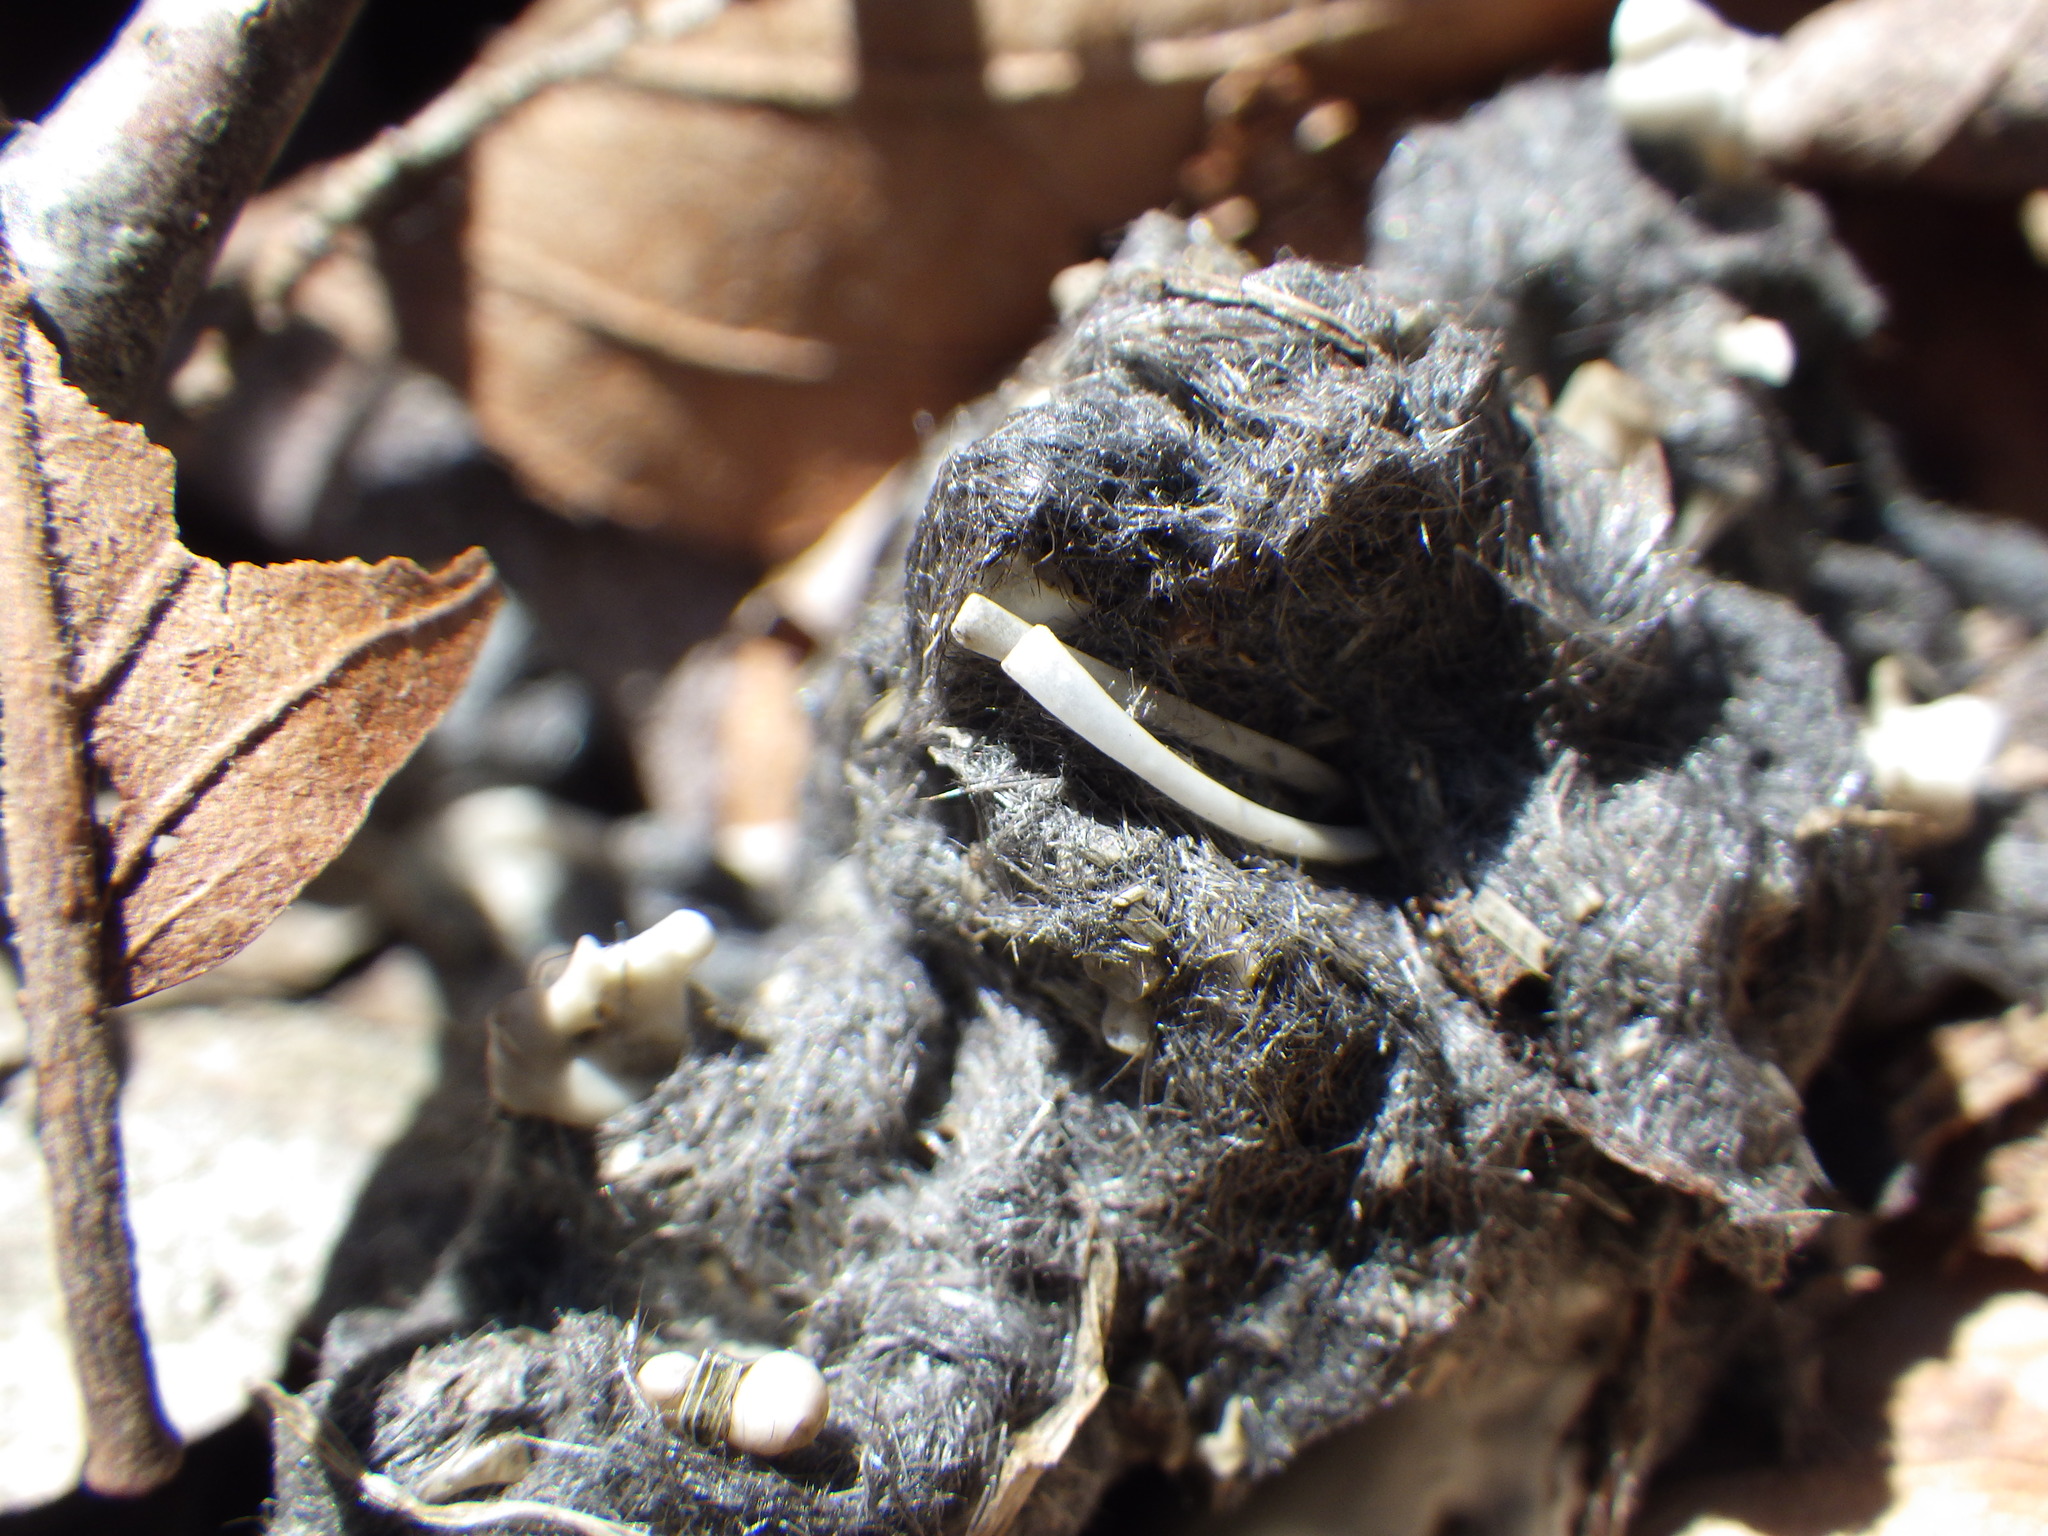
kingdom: Animalia
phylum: Chordata
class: Aves
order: Strigiformes
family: Strigidae
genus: Bubo
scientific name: Bubo virginianus
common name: Great horned owl
